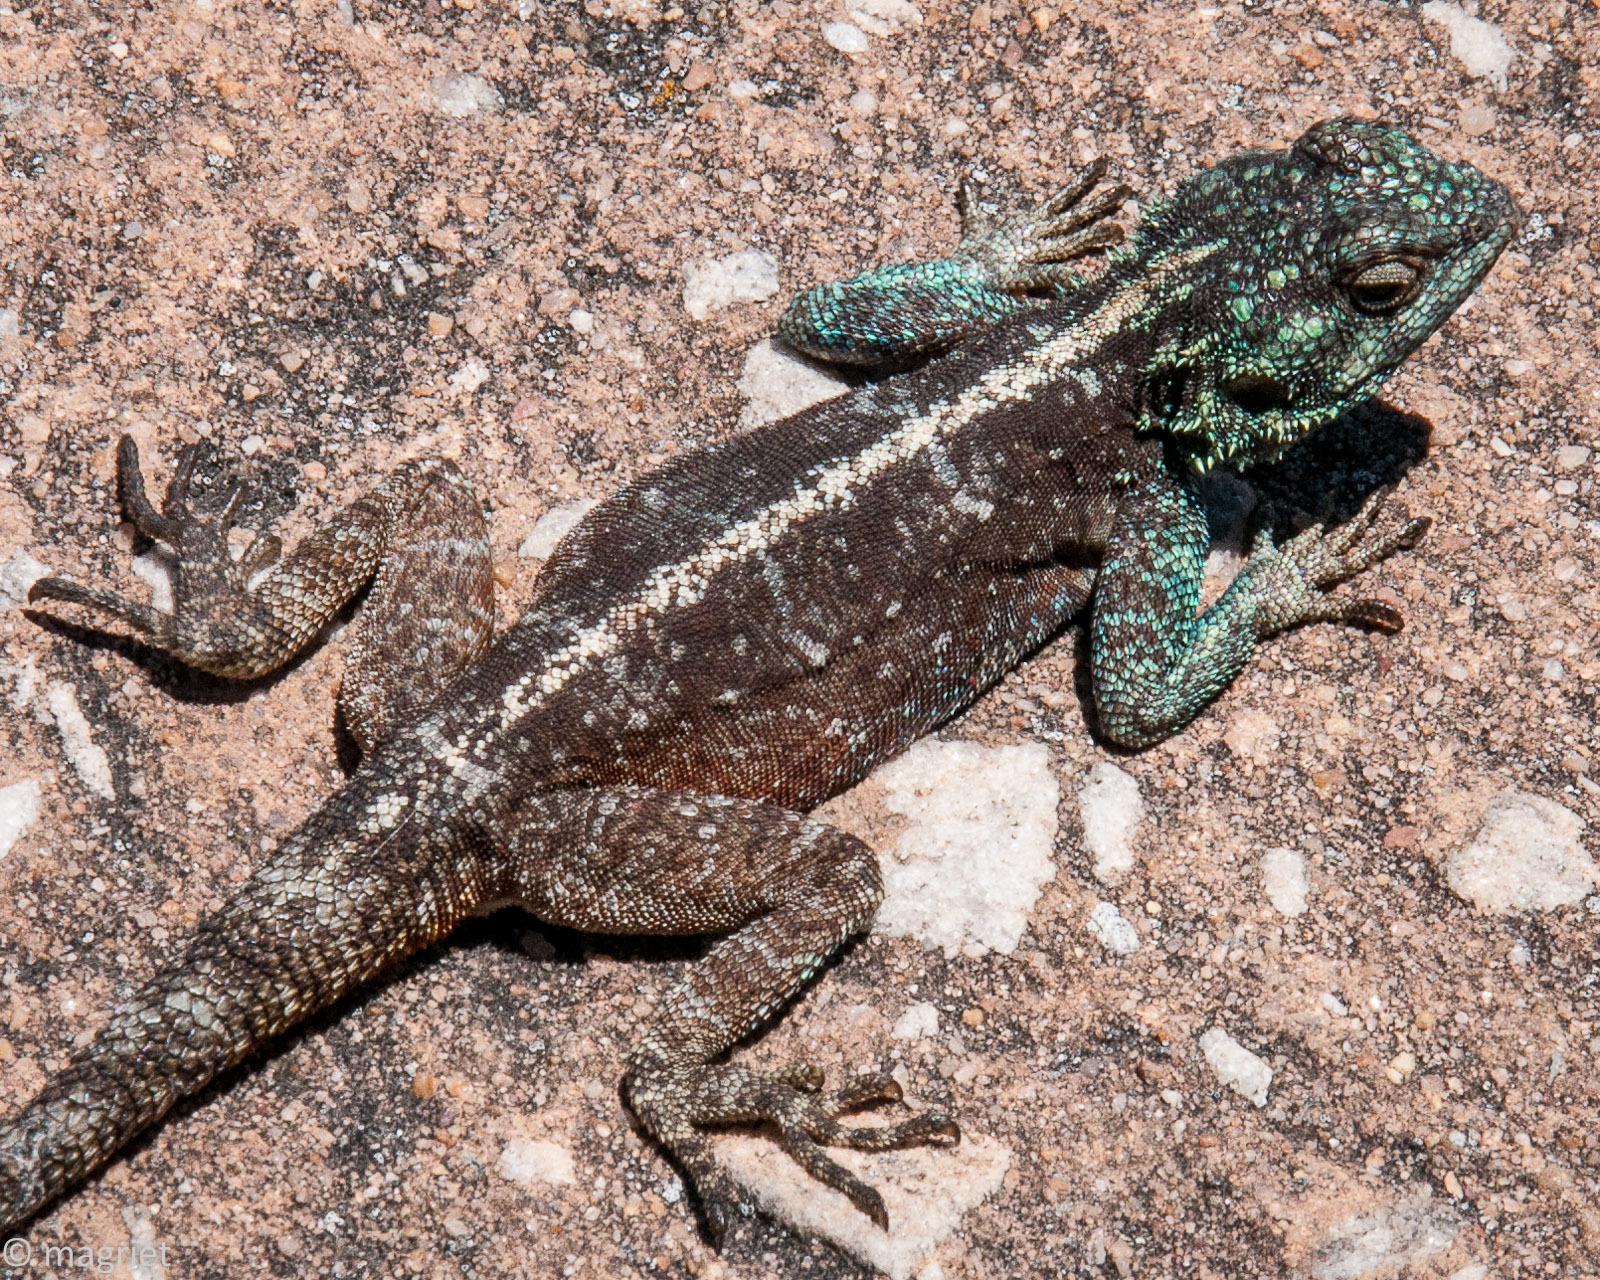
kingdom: Animalia
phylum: Chordata
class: Squamata
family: Agamidae
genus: Agama
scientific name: Agama atra
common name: Southern african rock agama
